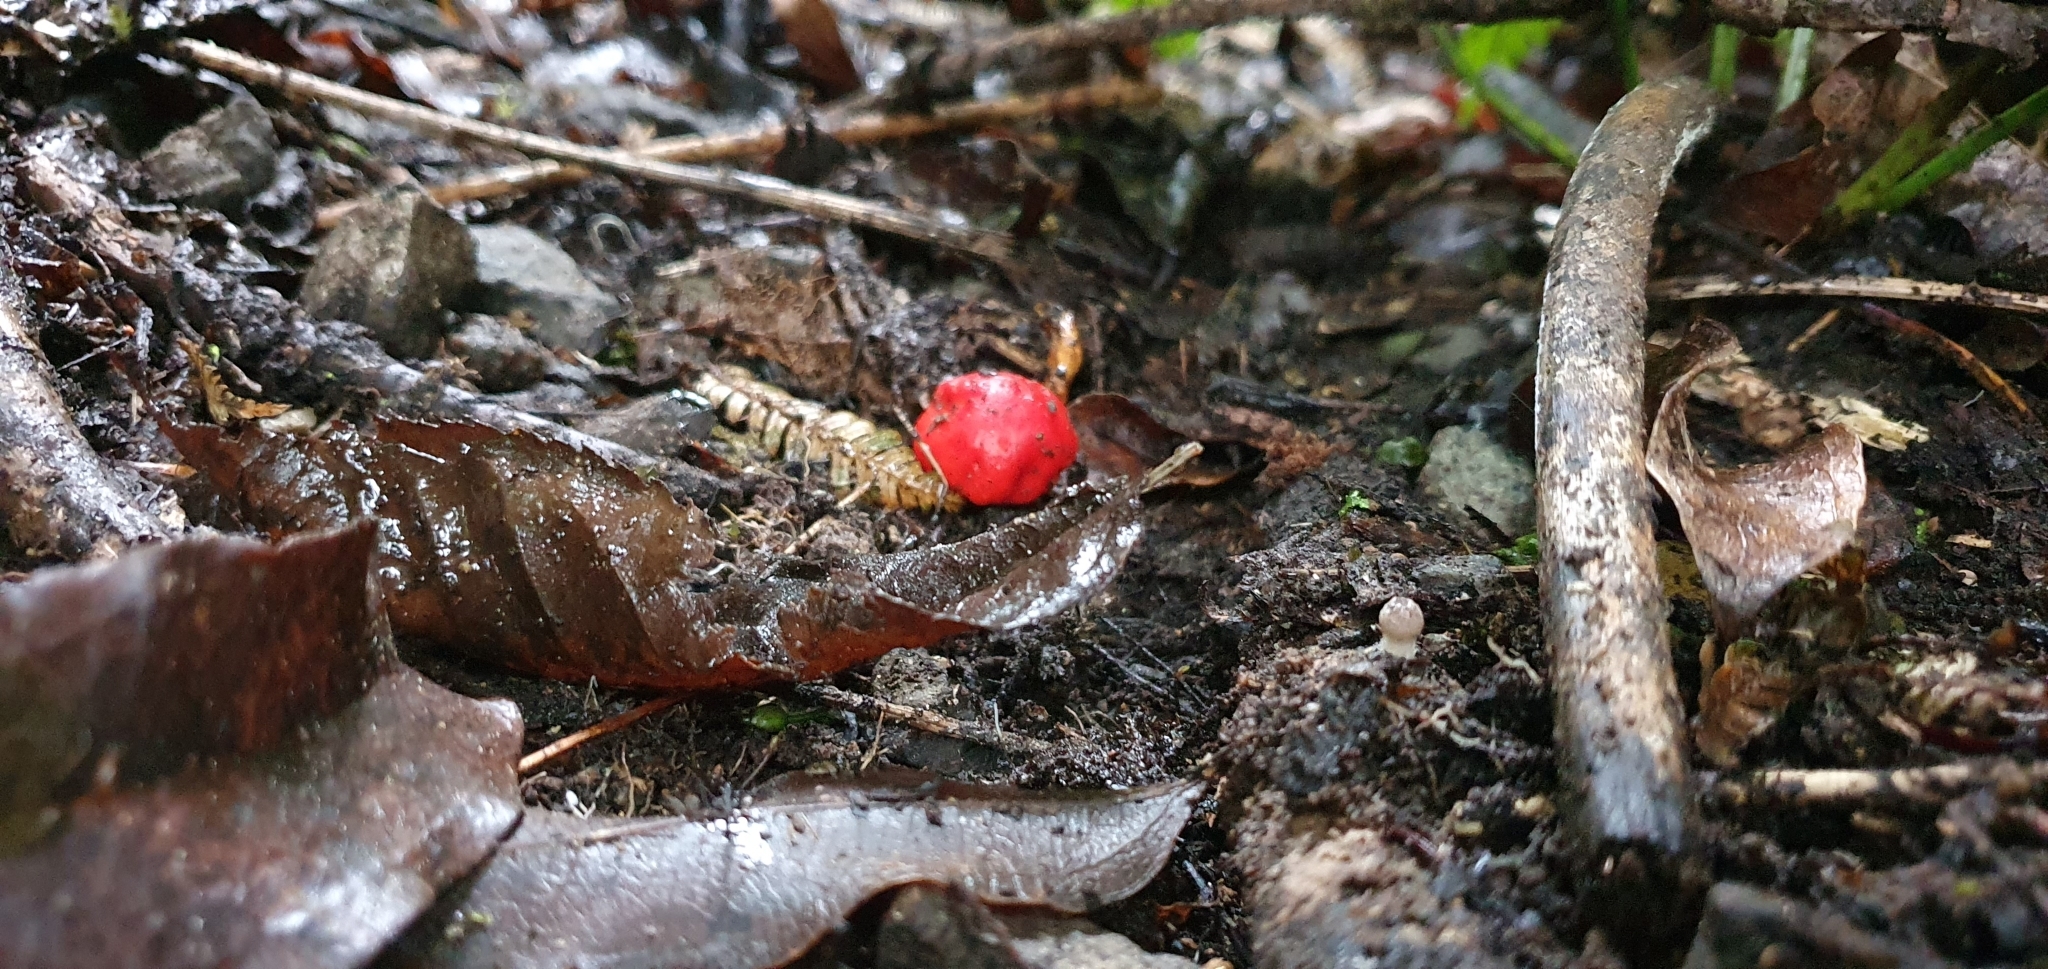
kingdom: Fungi
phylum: Basidiomycota
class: Agaricomycetes
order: Agaricales
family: Strophariaceae
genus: Leratiomyces
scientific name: Leratiomyces erythrocephalus
